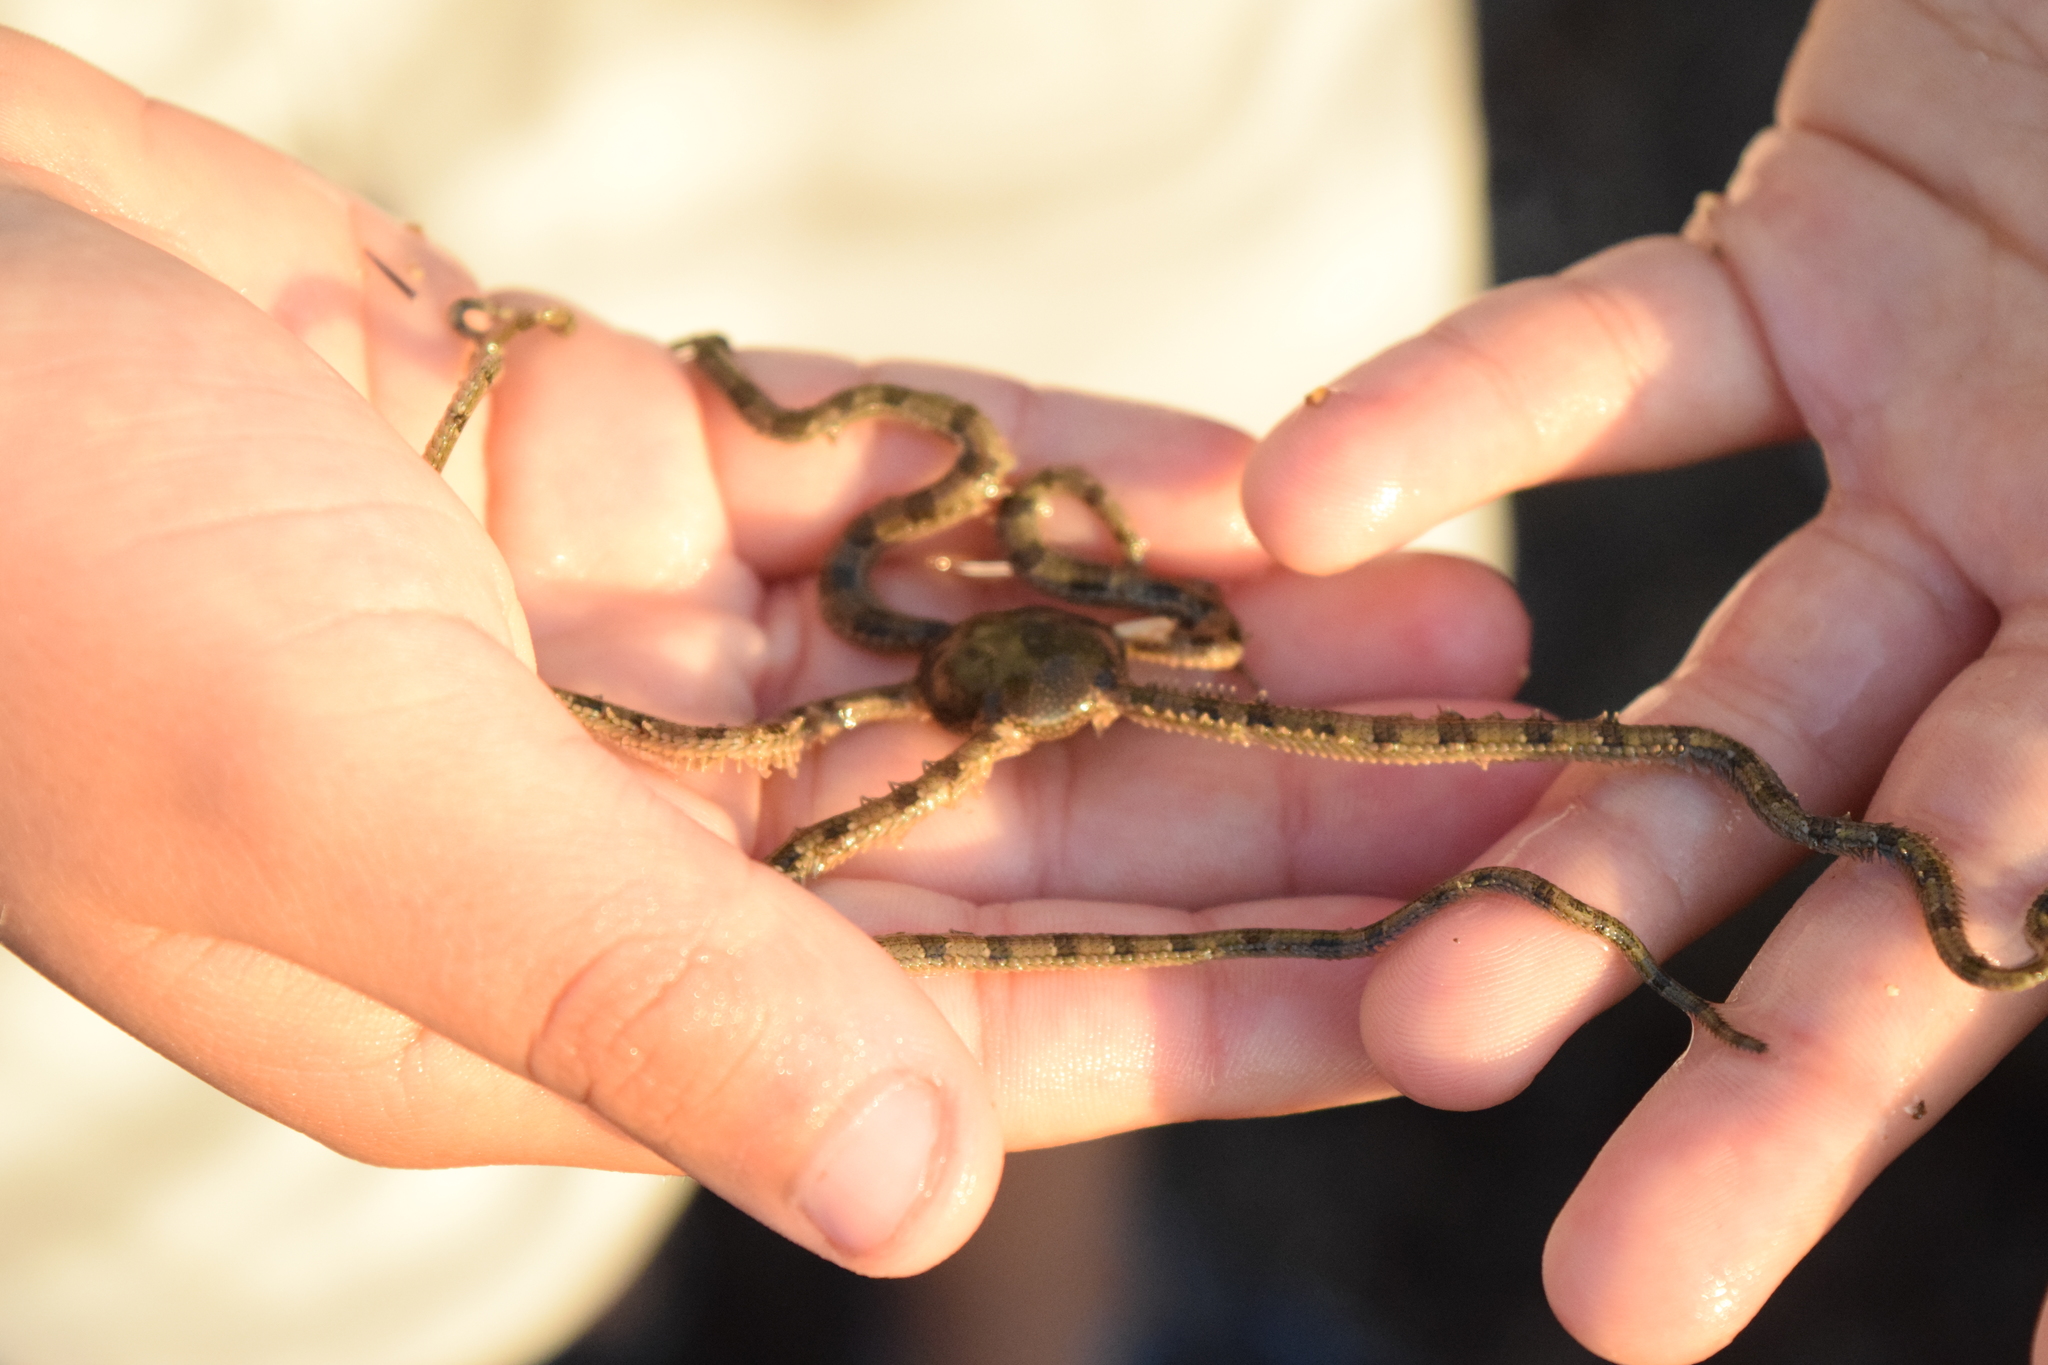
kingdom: Animalia
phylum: Echinodermata
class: Ophiuroidea
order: Amphilepidida
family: Ophionereididae
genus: Ophionereis
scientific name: Ophionereis annulata
